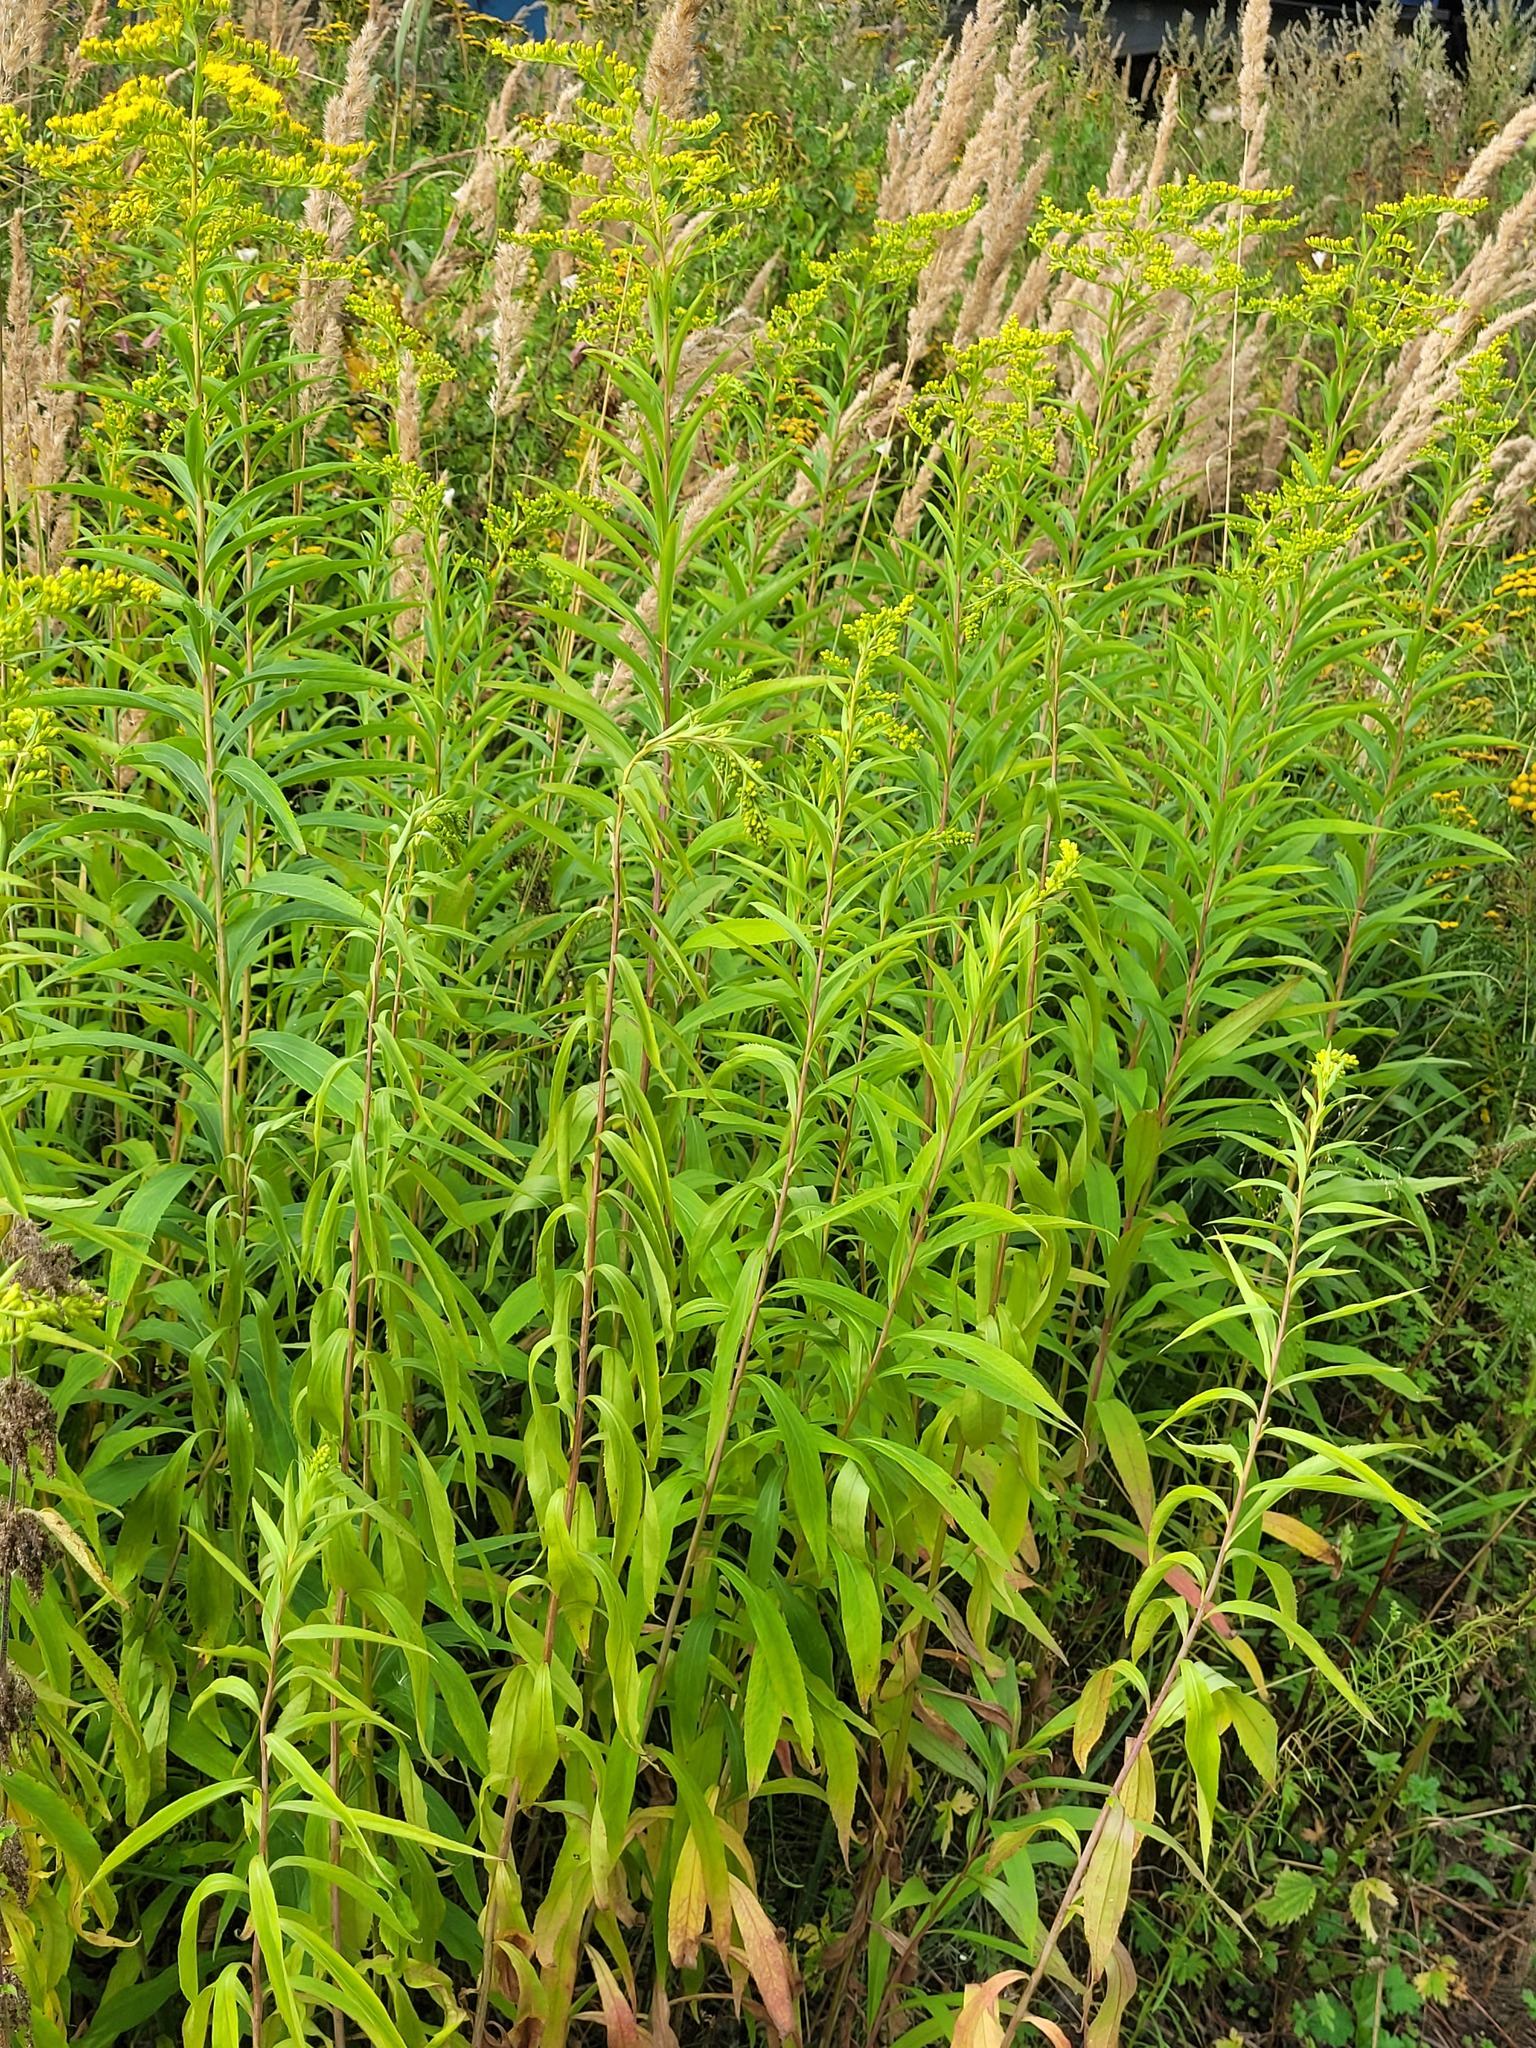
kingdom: Plantae
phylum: Tracheophyta
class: Magnoliopsida
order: Asterales
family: Asteraceae
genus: Solidago
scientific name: Solidago gigantea
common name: Giant goldenrod
